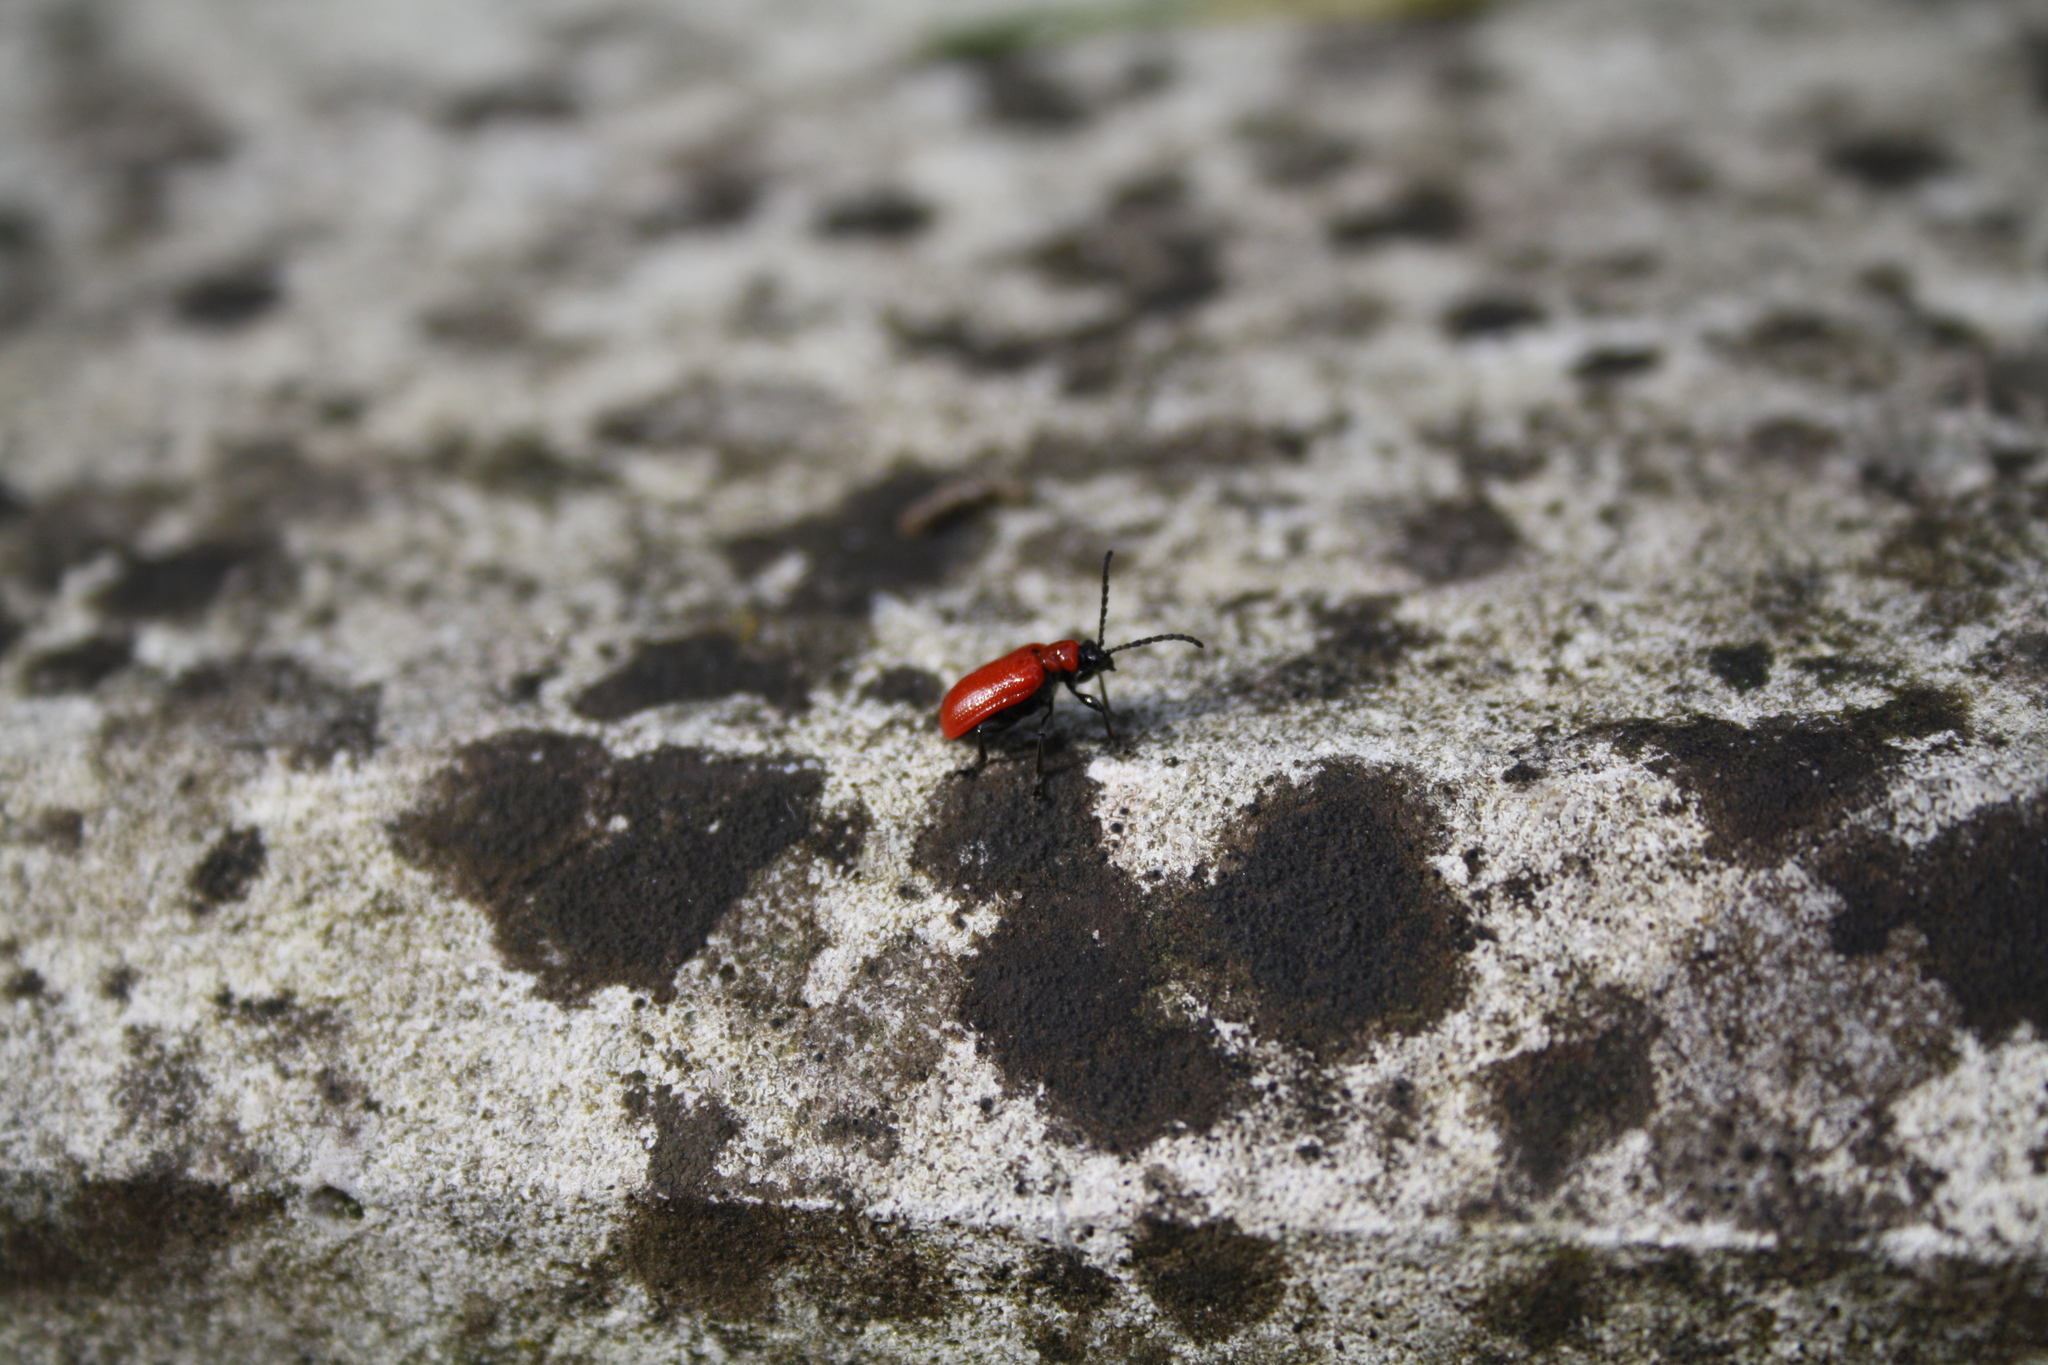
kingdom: Animalia
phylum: Arthropoda
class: Insecta
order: Coleoptera
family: Chrysomelidae
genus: Lilioceris
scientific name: Lilioceris lilii
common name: Lily beetle
